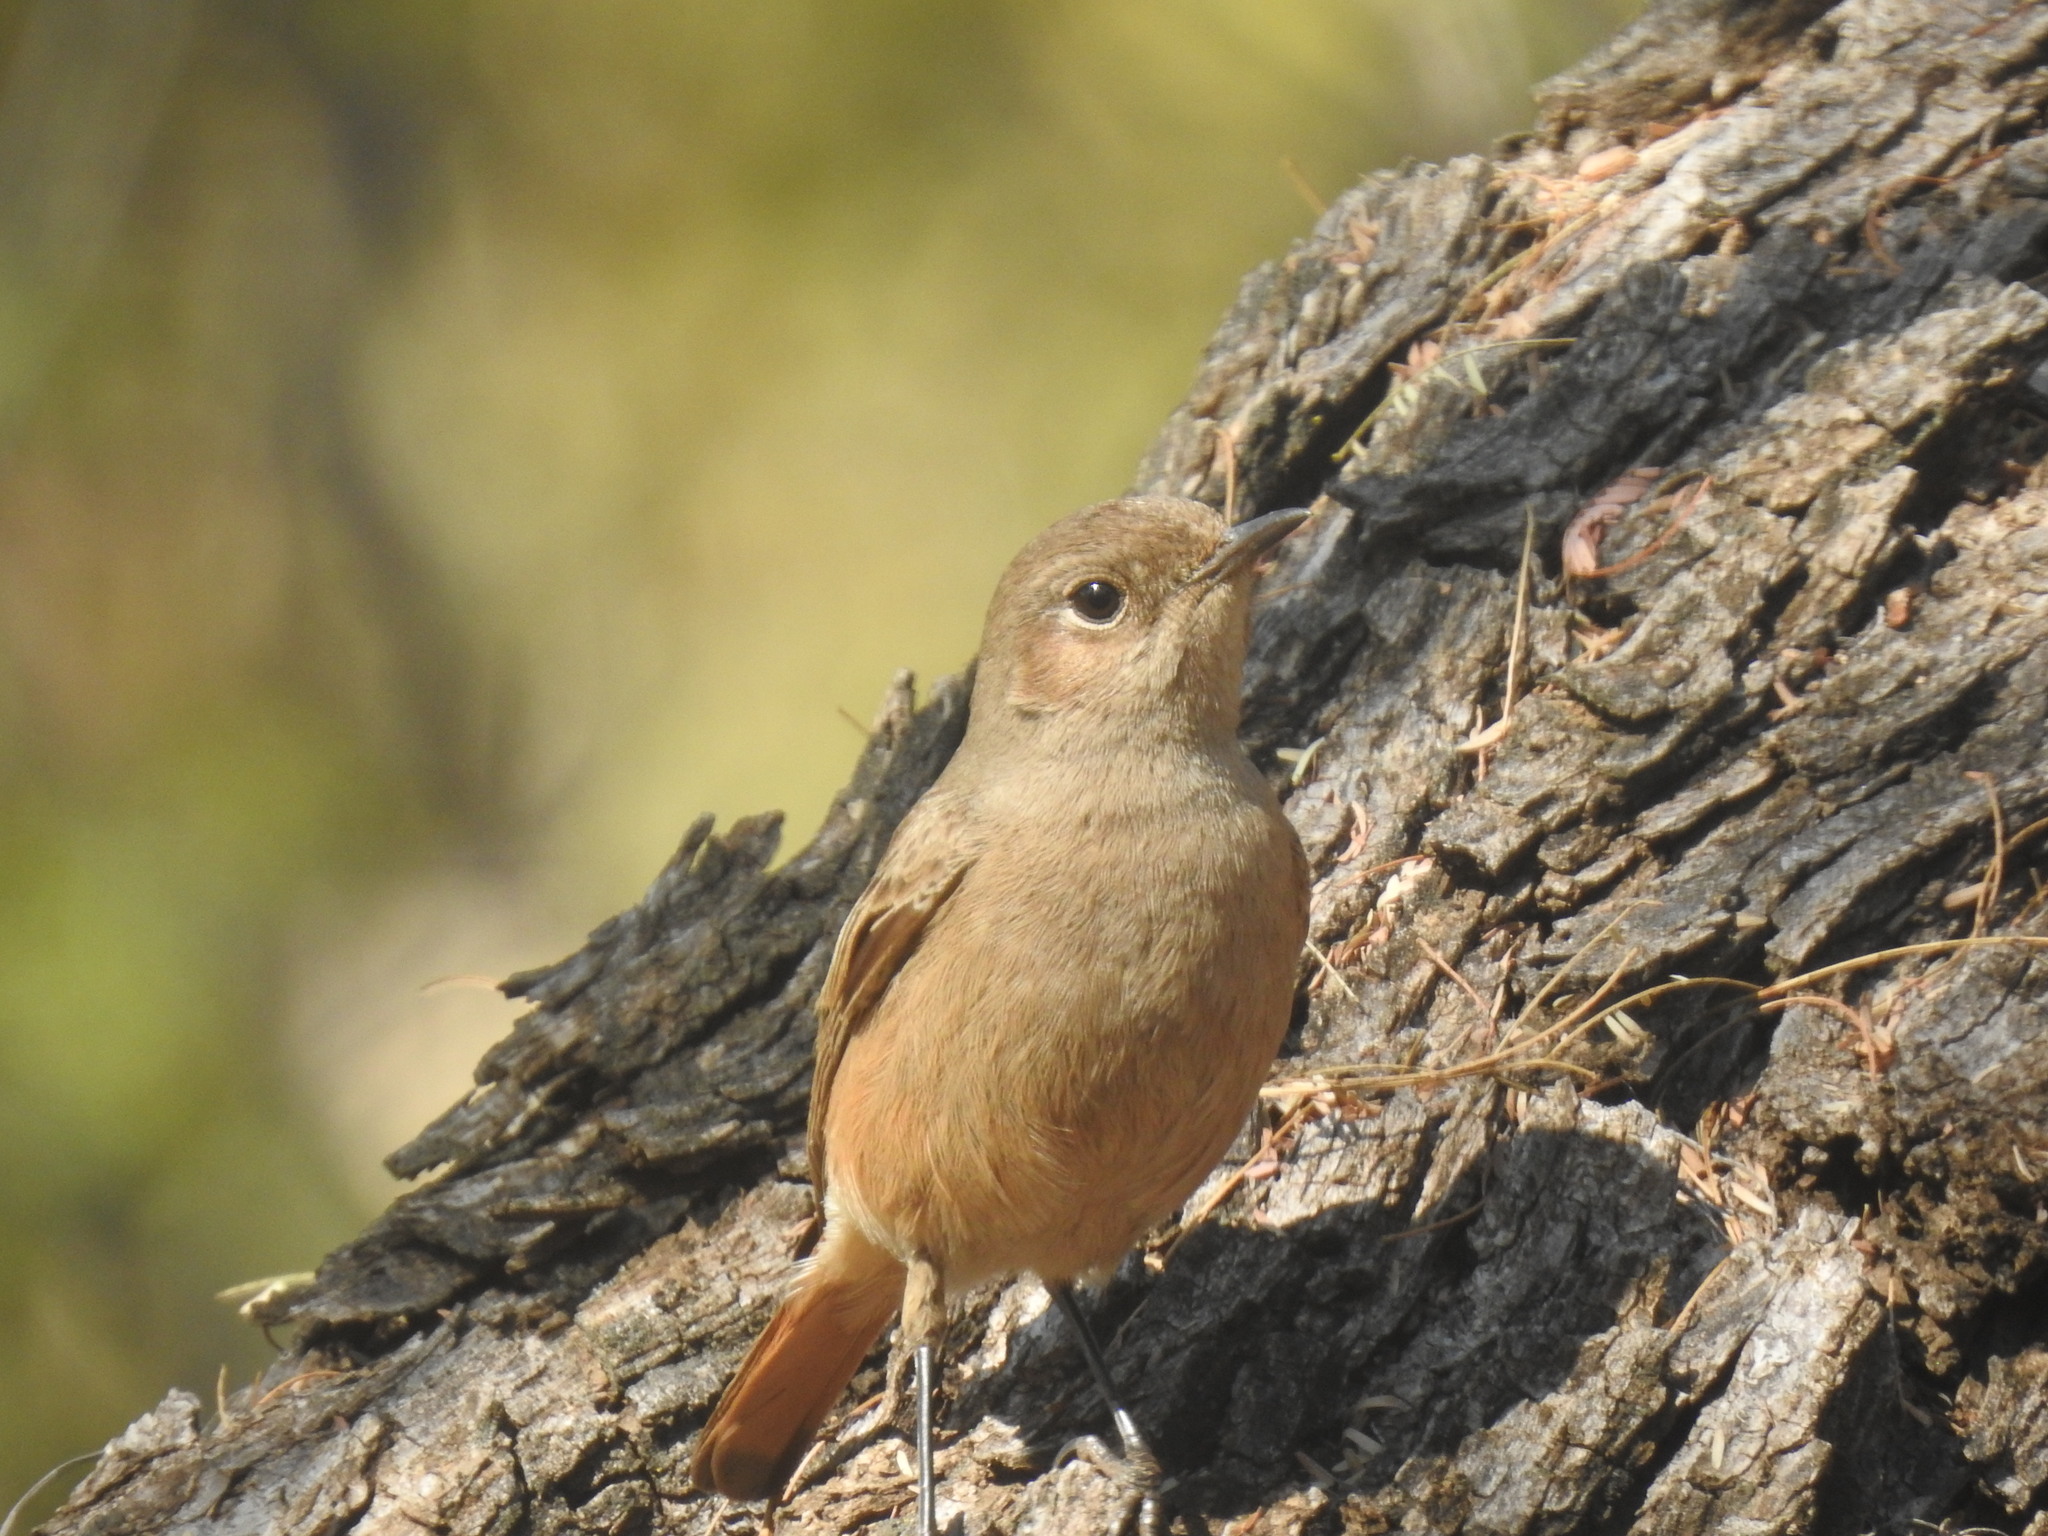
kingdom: Animalia
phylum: Chordata
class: Aves
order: Passeriformes
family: Muscicapidae
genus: Oenanthe
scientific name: Oenanthe familiaris
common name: Familiar chat
